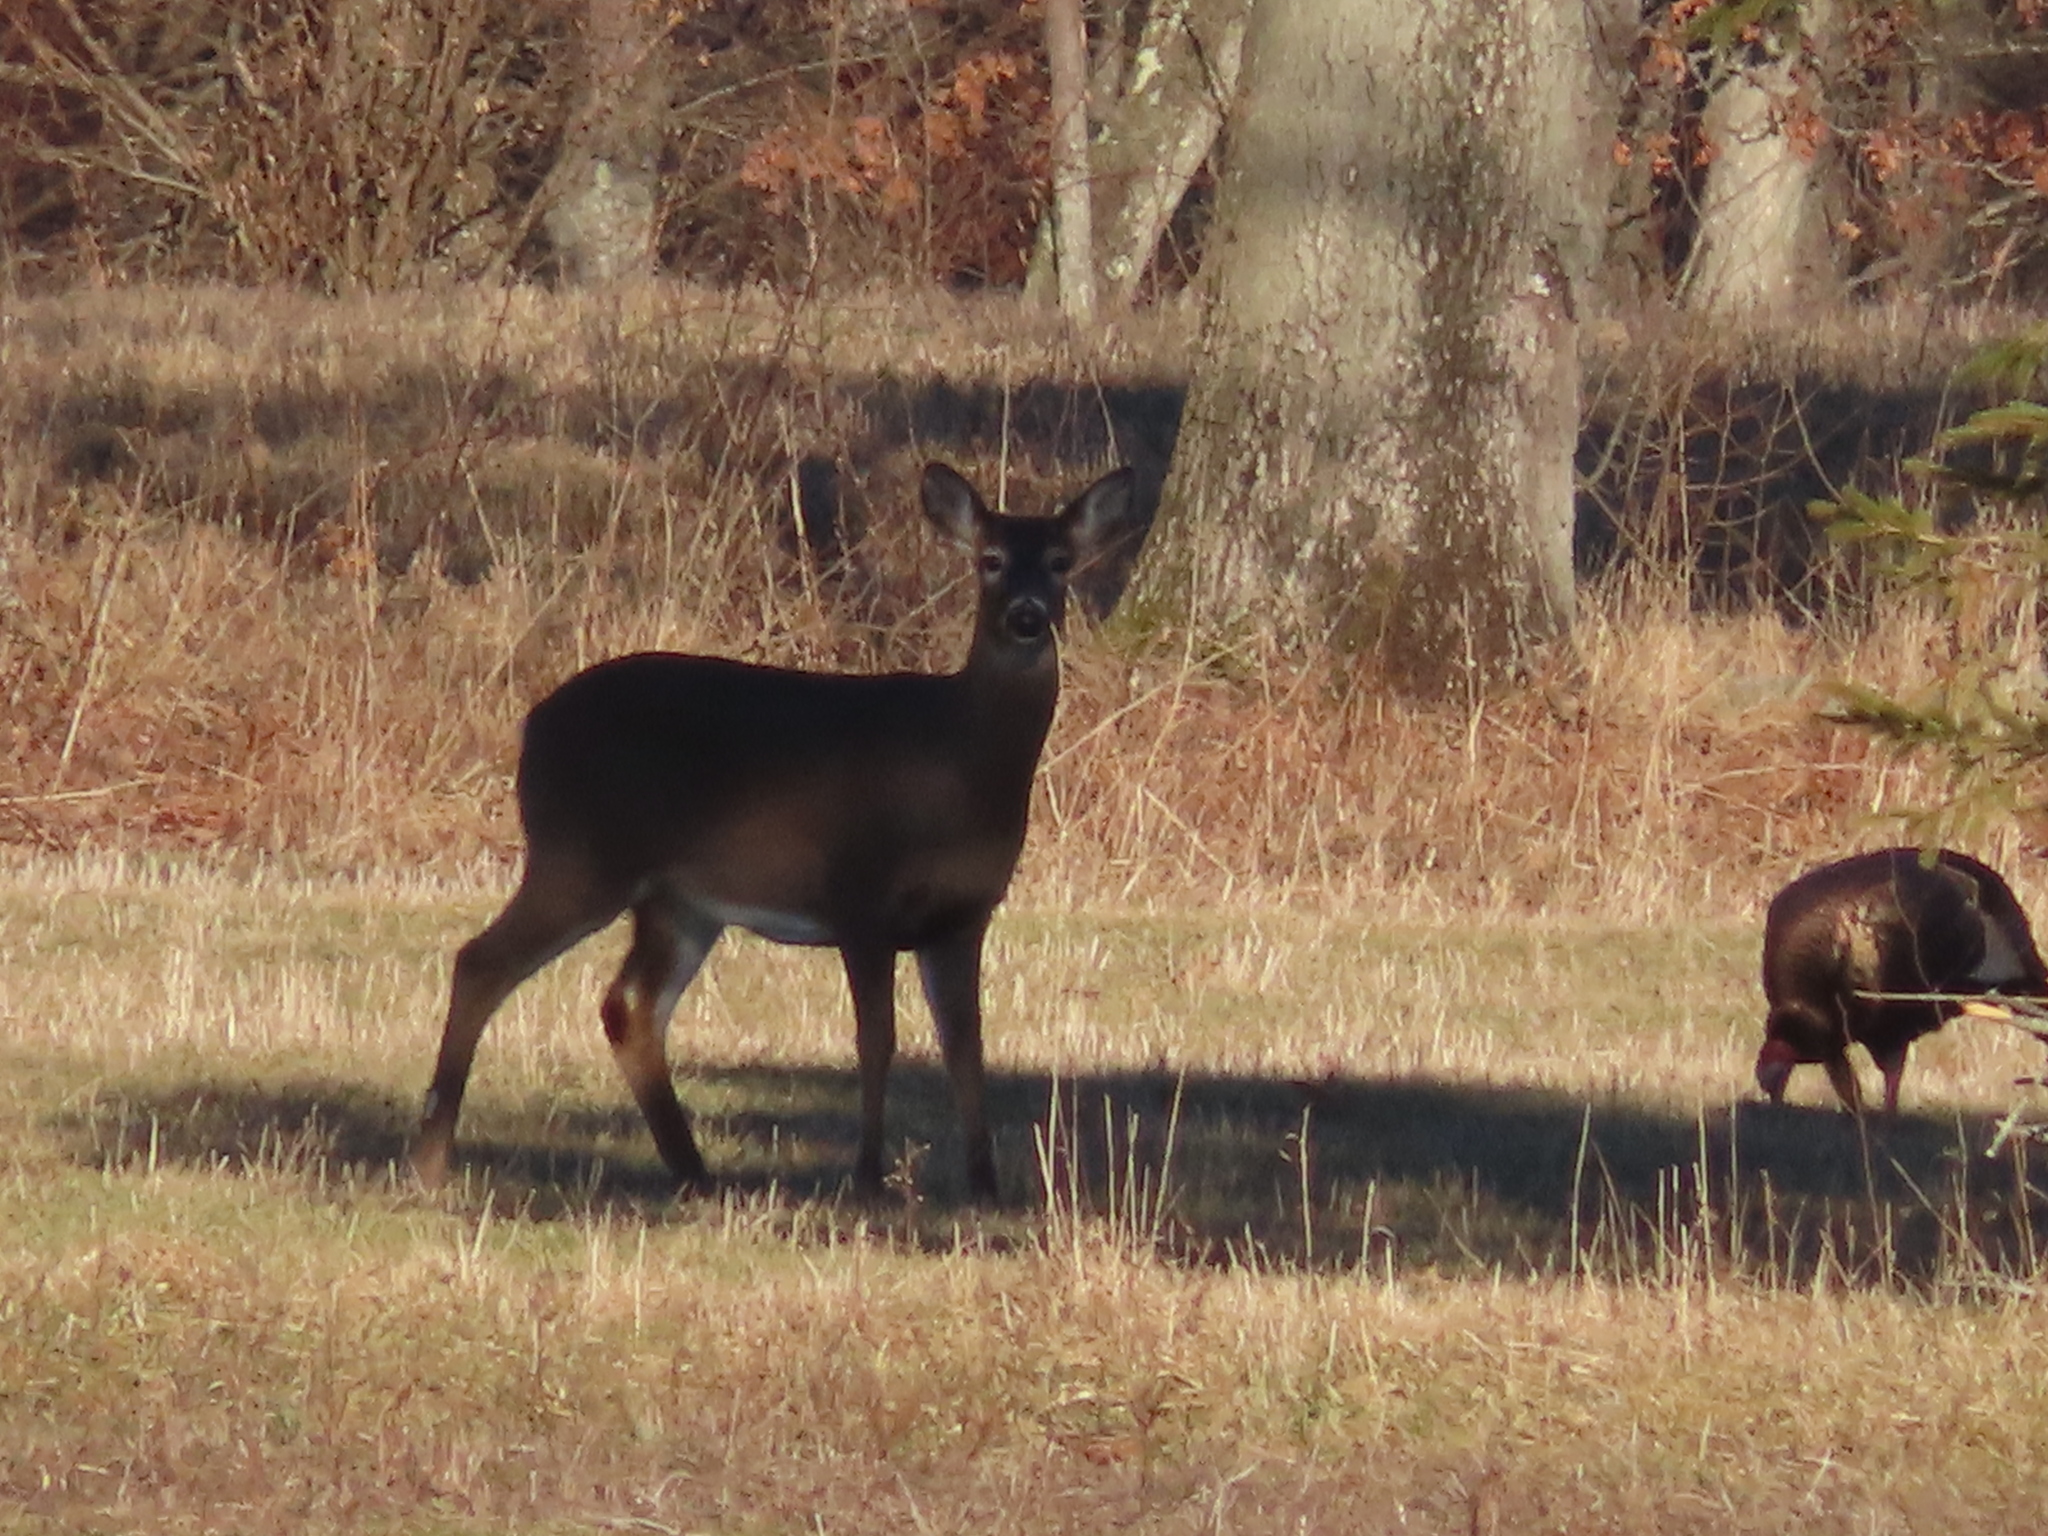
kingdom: Animalia
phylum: Chordata
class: Mammalia
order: Artiodactyla
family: Cervidae
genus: Odocoileus
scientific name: Odocoileus virginianus
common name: White-tailed deer
